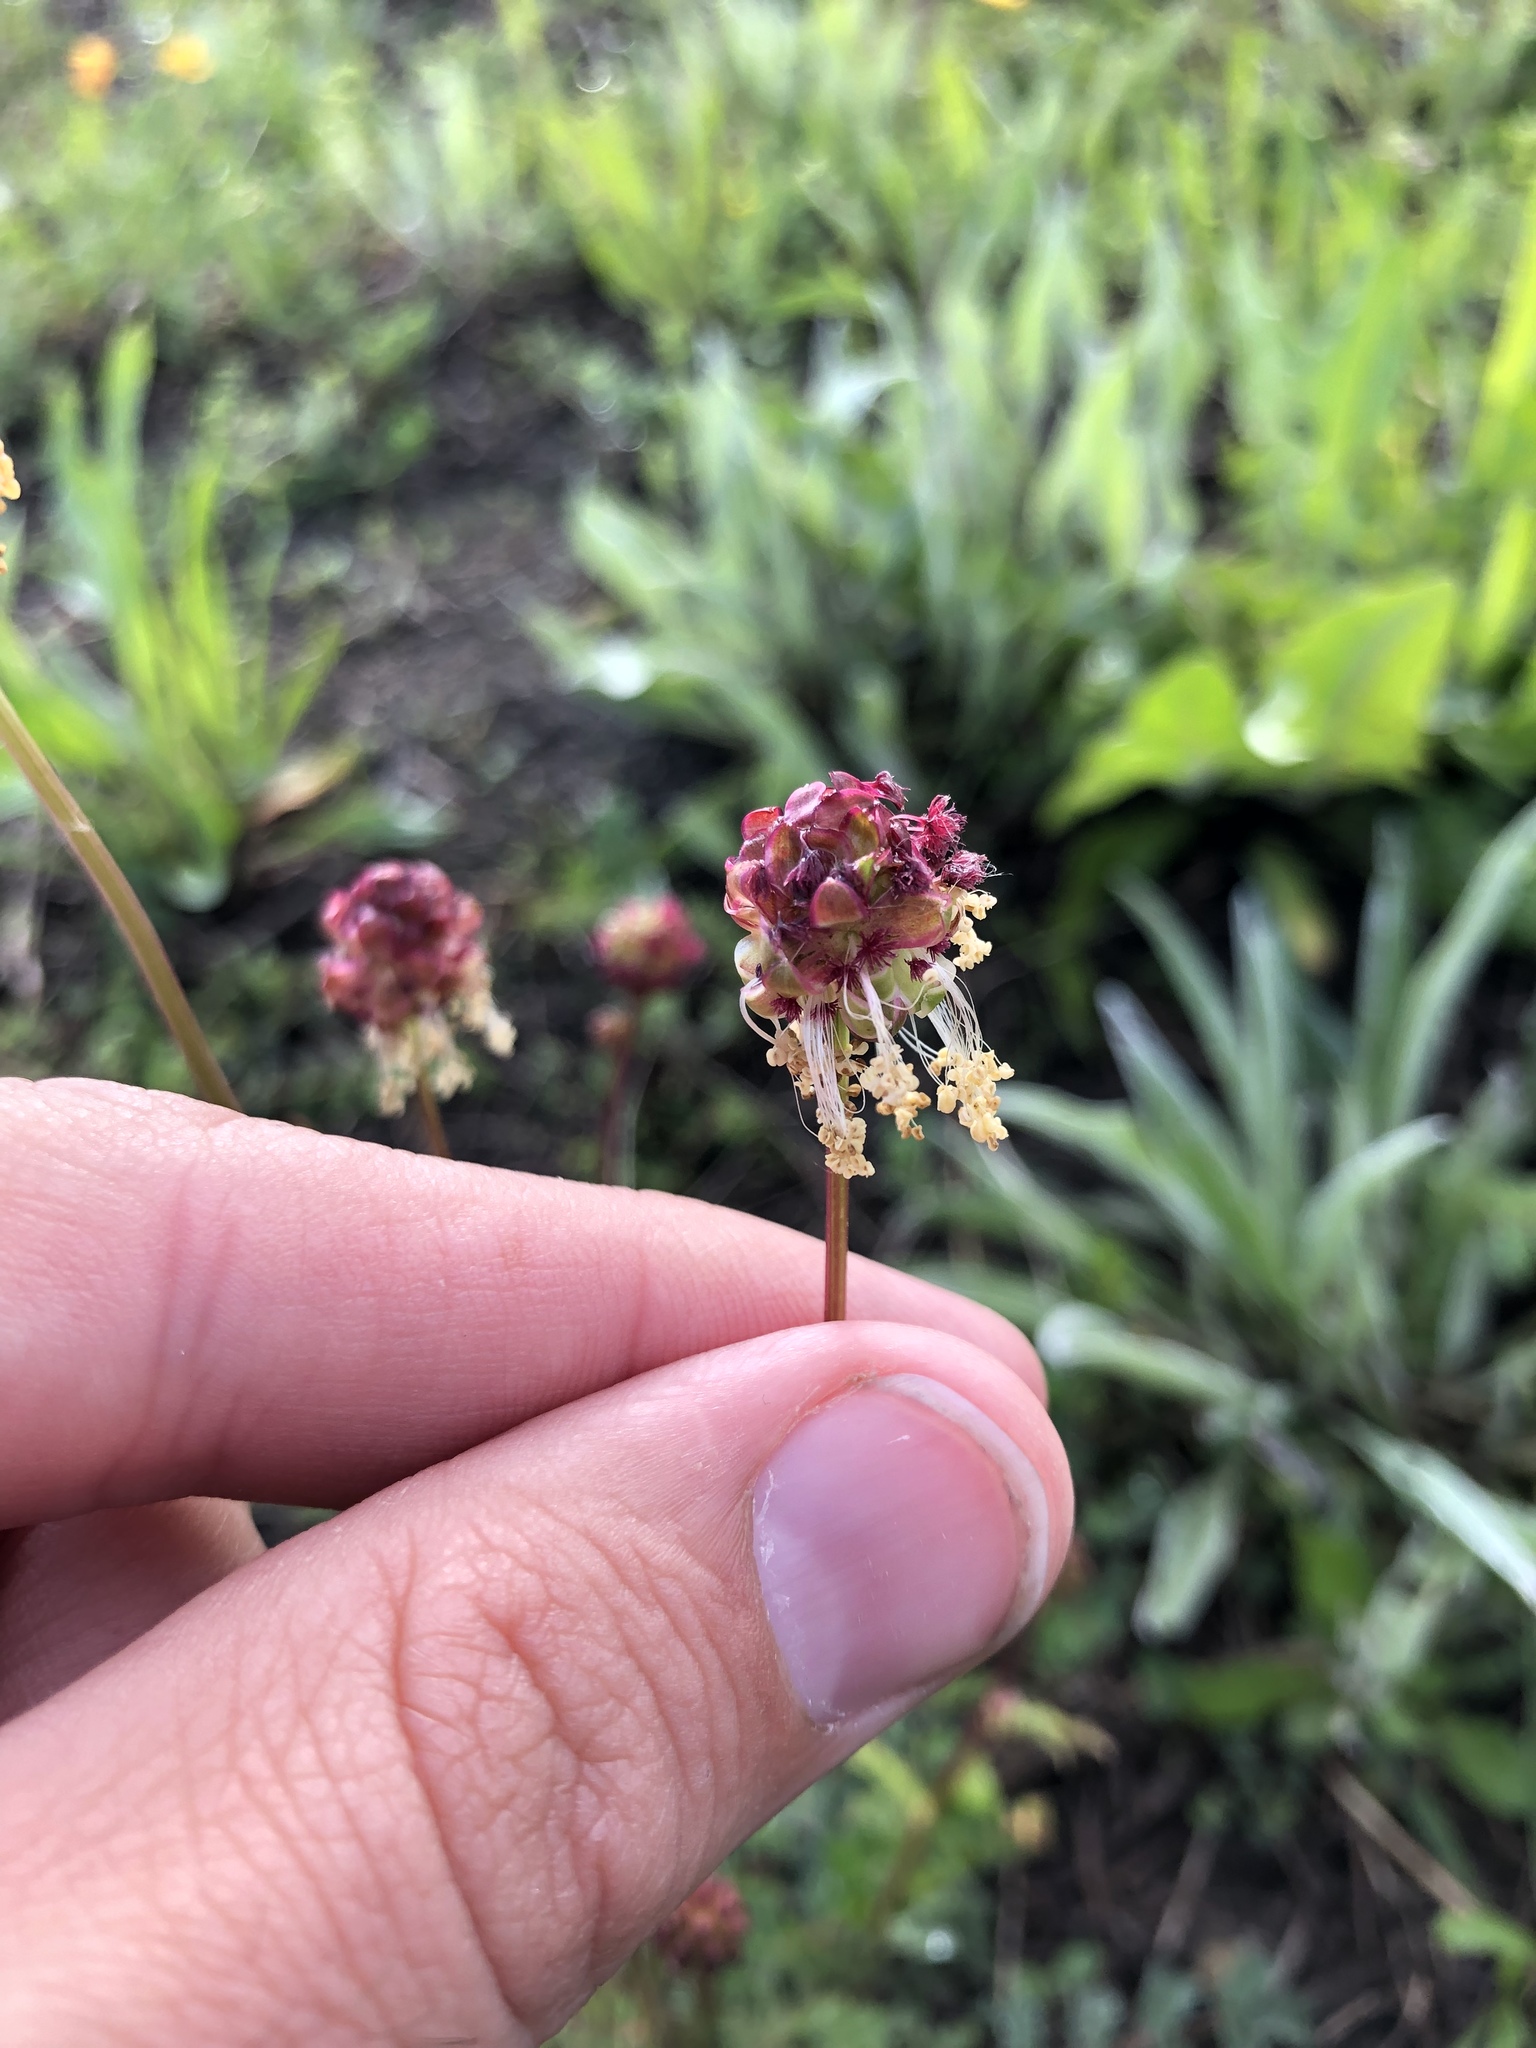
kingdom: Plantae
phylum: Tracheophyta
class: Magnoliopsida
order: Rosales
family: Rosaceae
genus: Poterium
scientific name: Poterium sanguisorba
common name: Salad burnet
